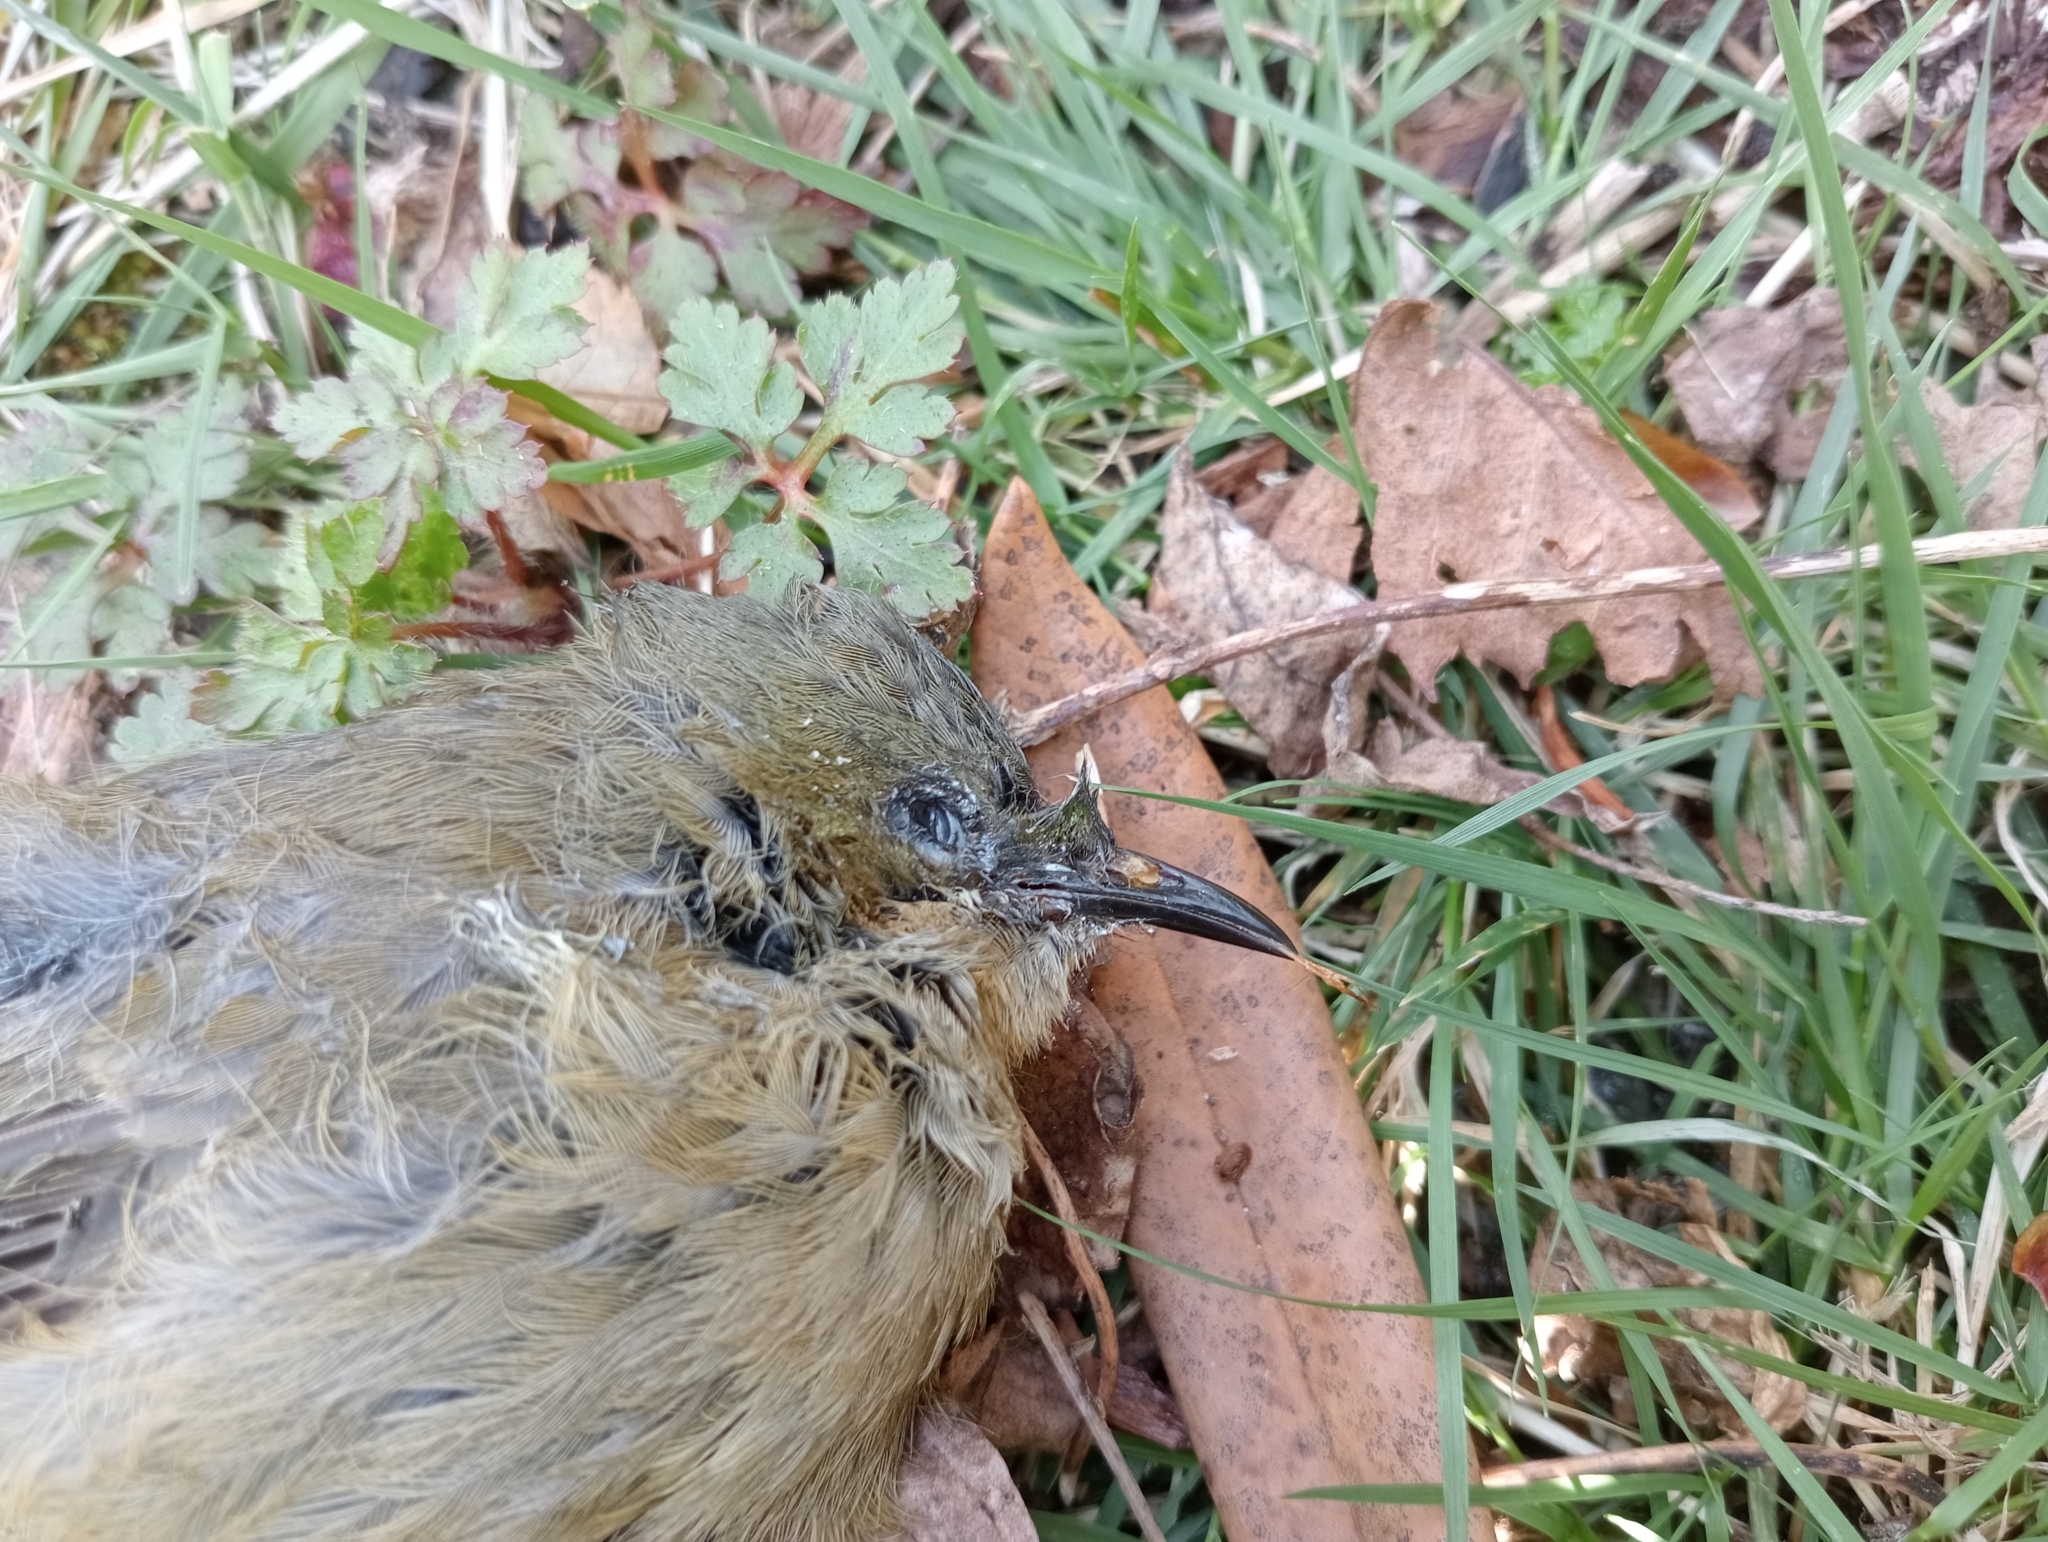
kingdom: Animalia
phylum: Chordata
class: Aves
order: Passeriformes
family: Meliphagidae
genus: Anthornis
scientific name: Anthornis melanura
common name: New zealand bellbird
